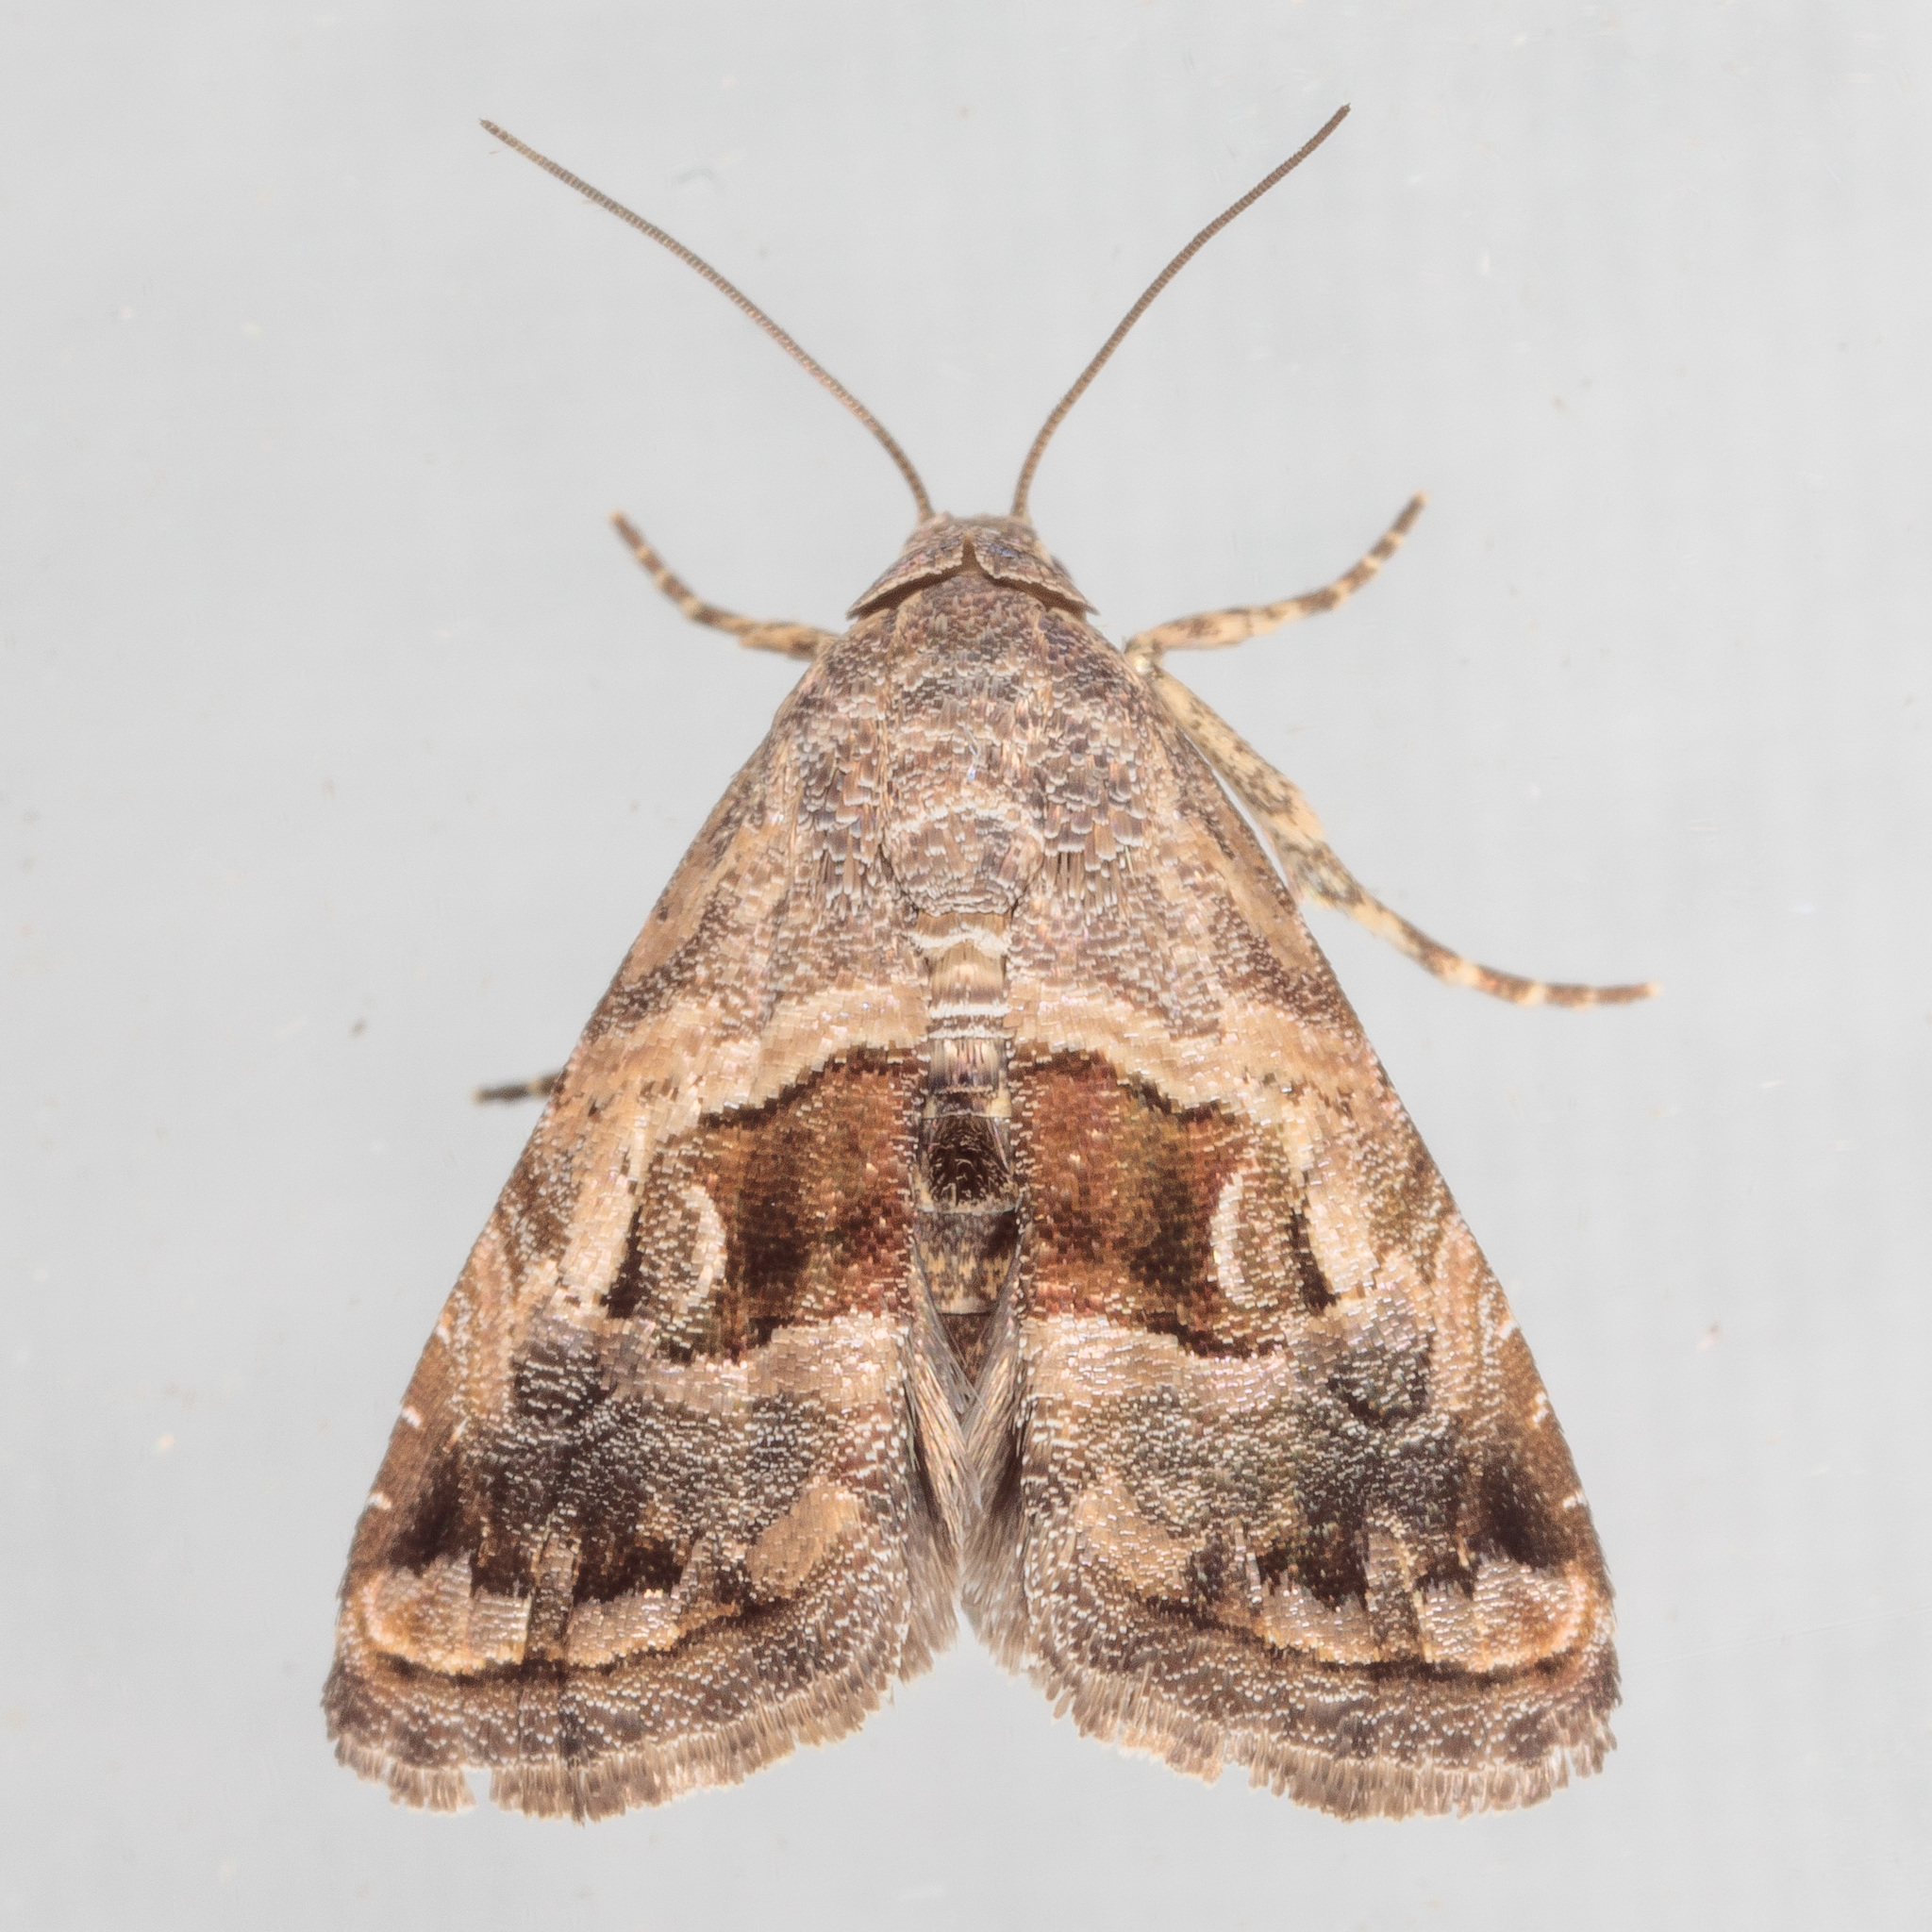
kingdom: Animalia
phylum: Arthropoda
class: Insecta
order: Lepidoptera
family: Noctuidae
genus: Tripudia
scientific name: Tripudia quadrifera
